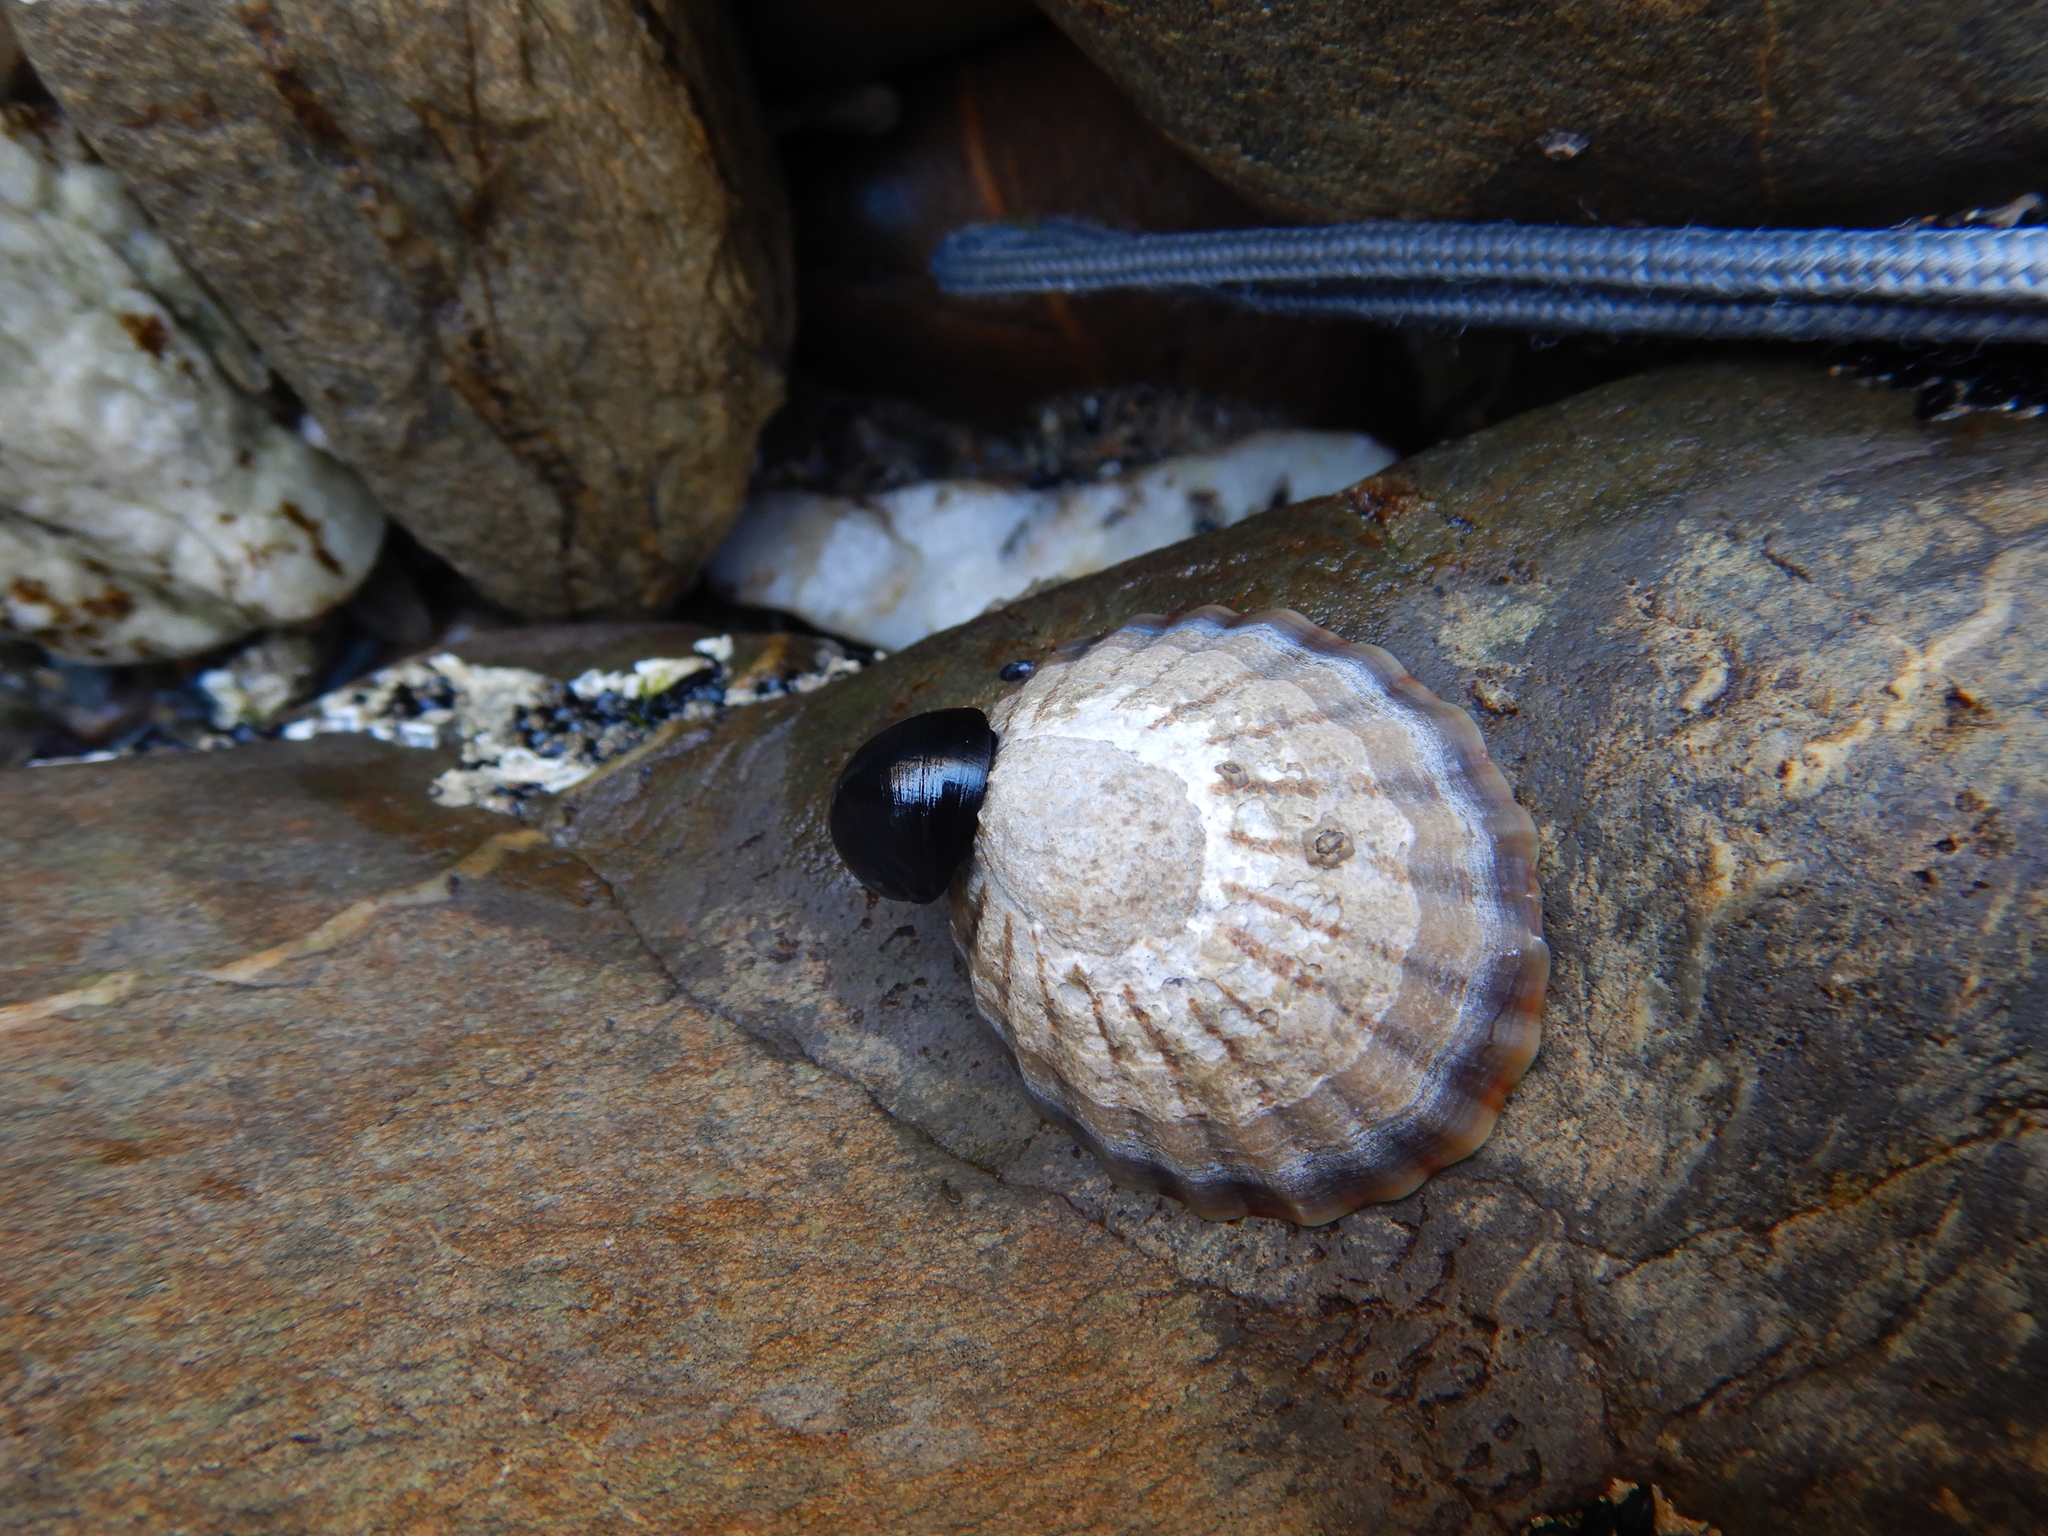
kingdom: Animalia
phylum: Mollusca
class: Gastropoda
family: Nacellidae
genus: Cellana
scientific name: Cellana solida
